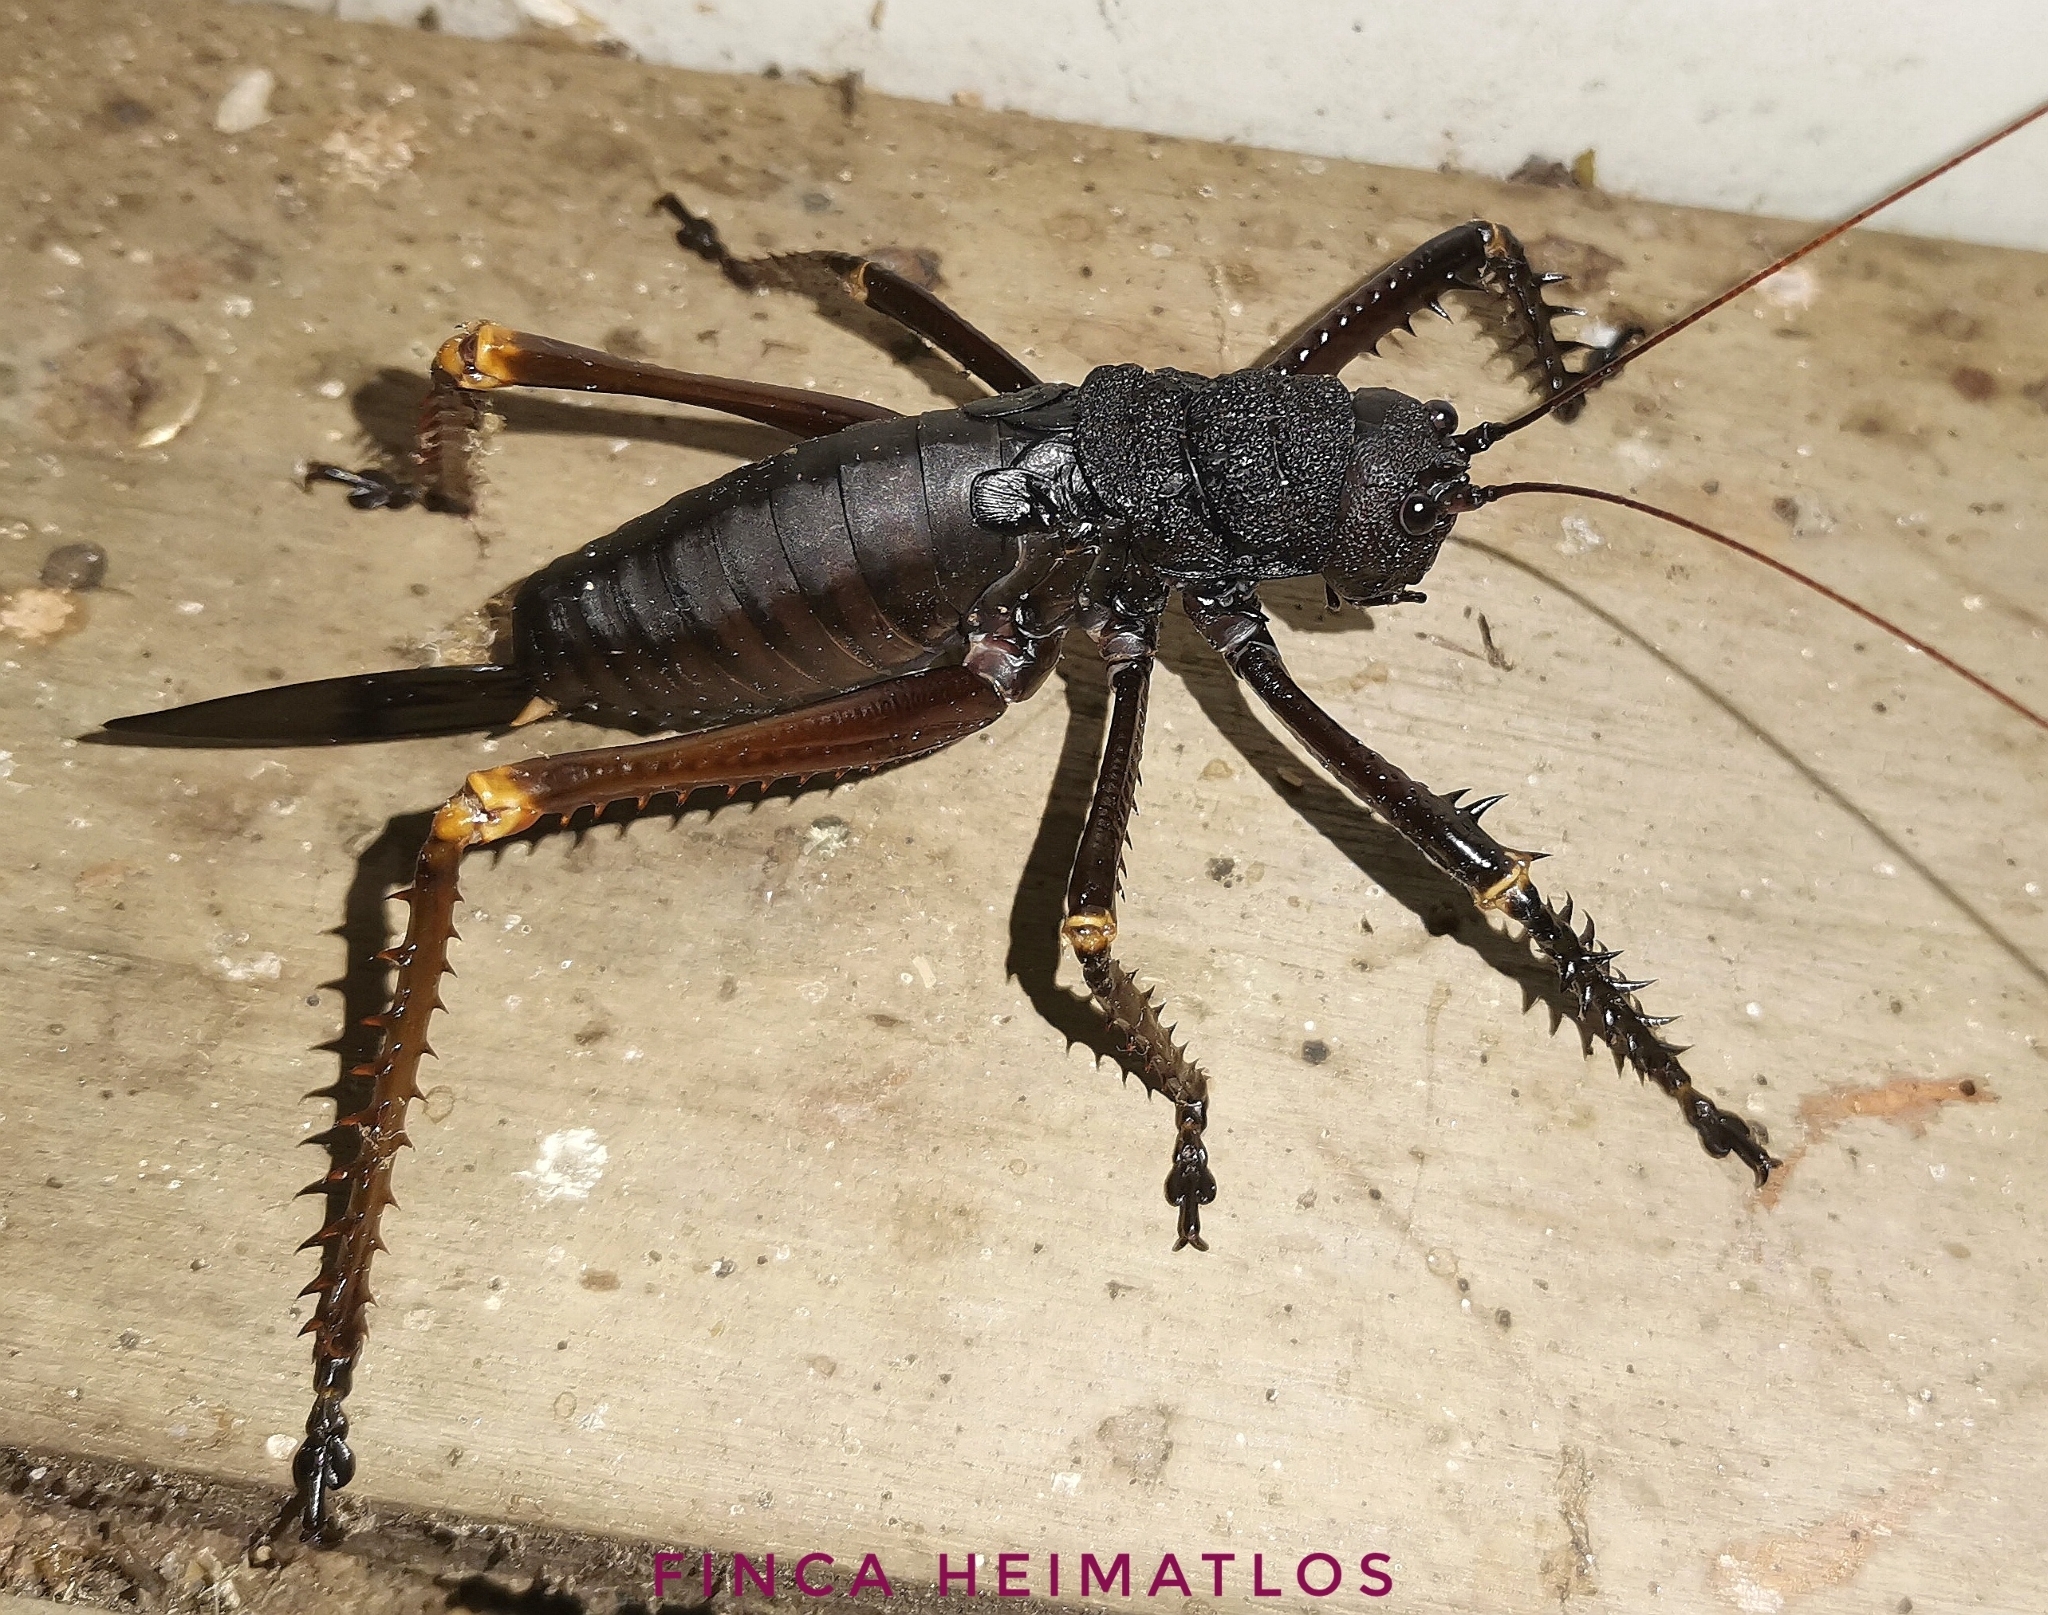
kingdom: Animalia
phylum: Arthropoda
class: Insecta
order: Orthoptera
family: Tettigoniidae
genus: Panoploscelis
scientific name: Panoploscelis specularis
